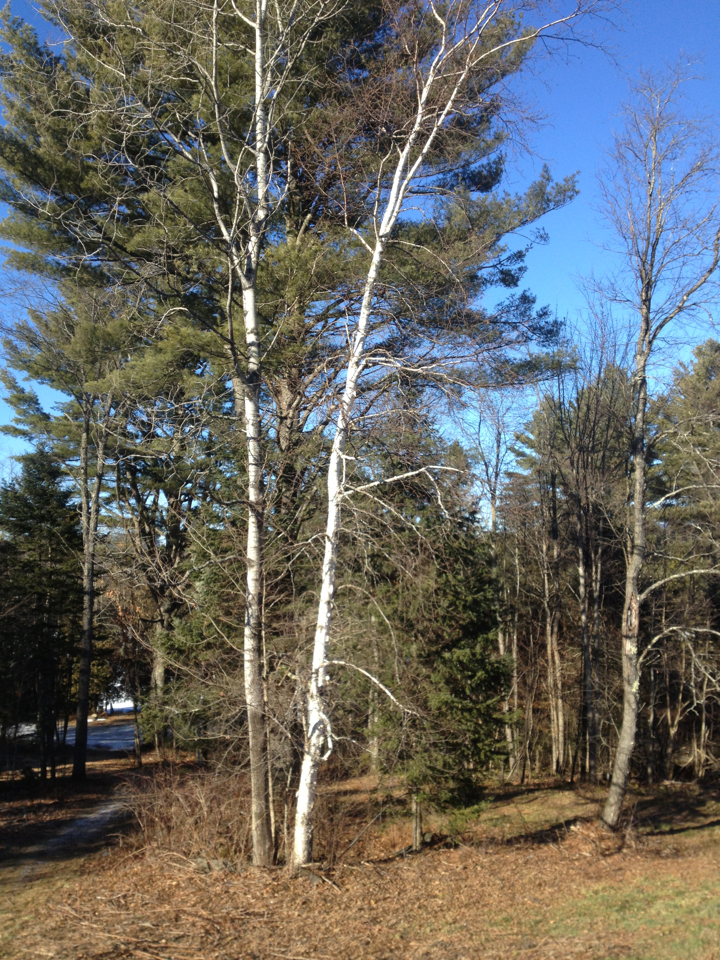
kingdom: Plantae
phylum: Tracheophyta
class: Magnoliopsida
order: Fagales
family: Betulaceae
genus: Betula
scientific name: Betula papyrifera
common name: Paper birch
